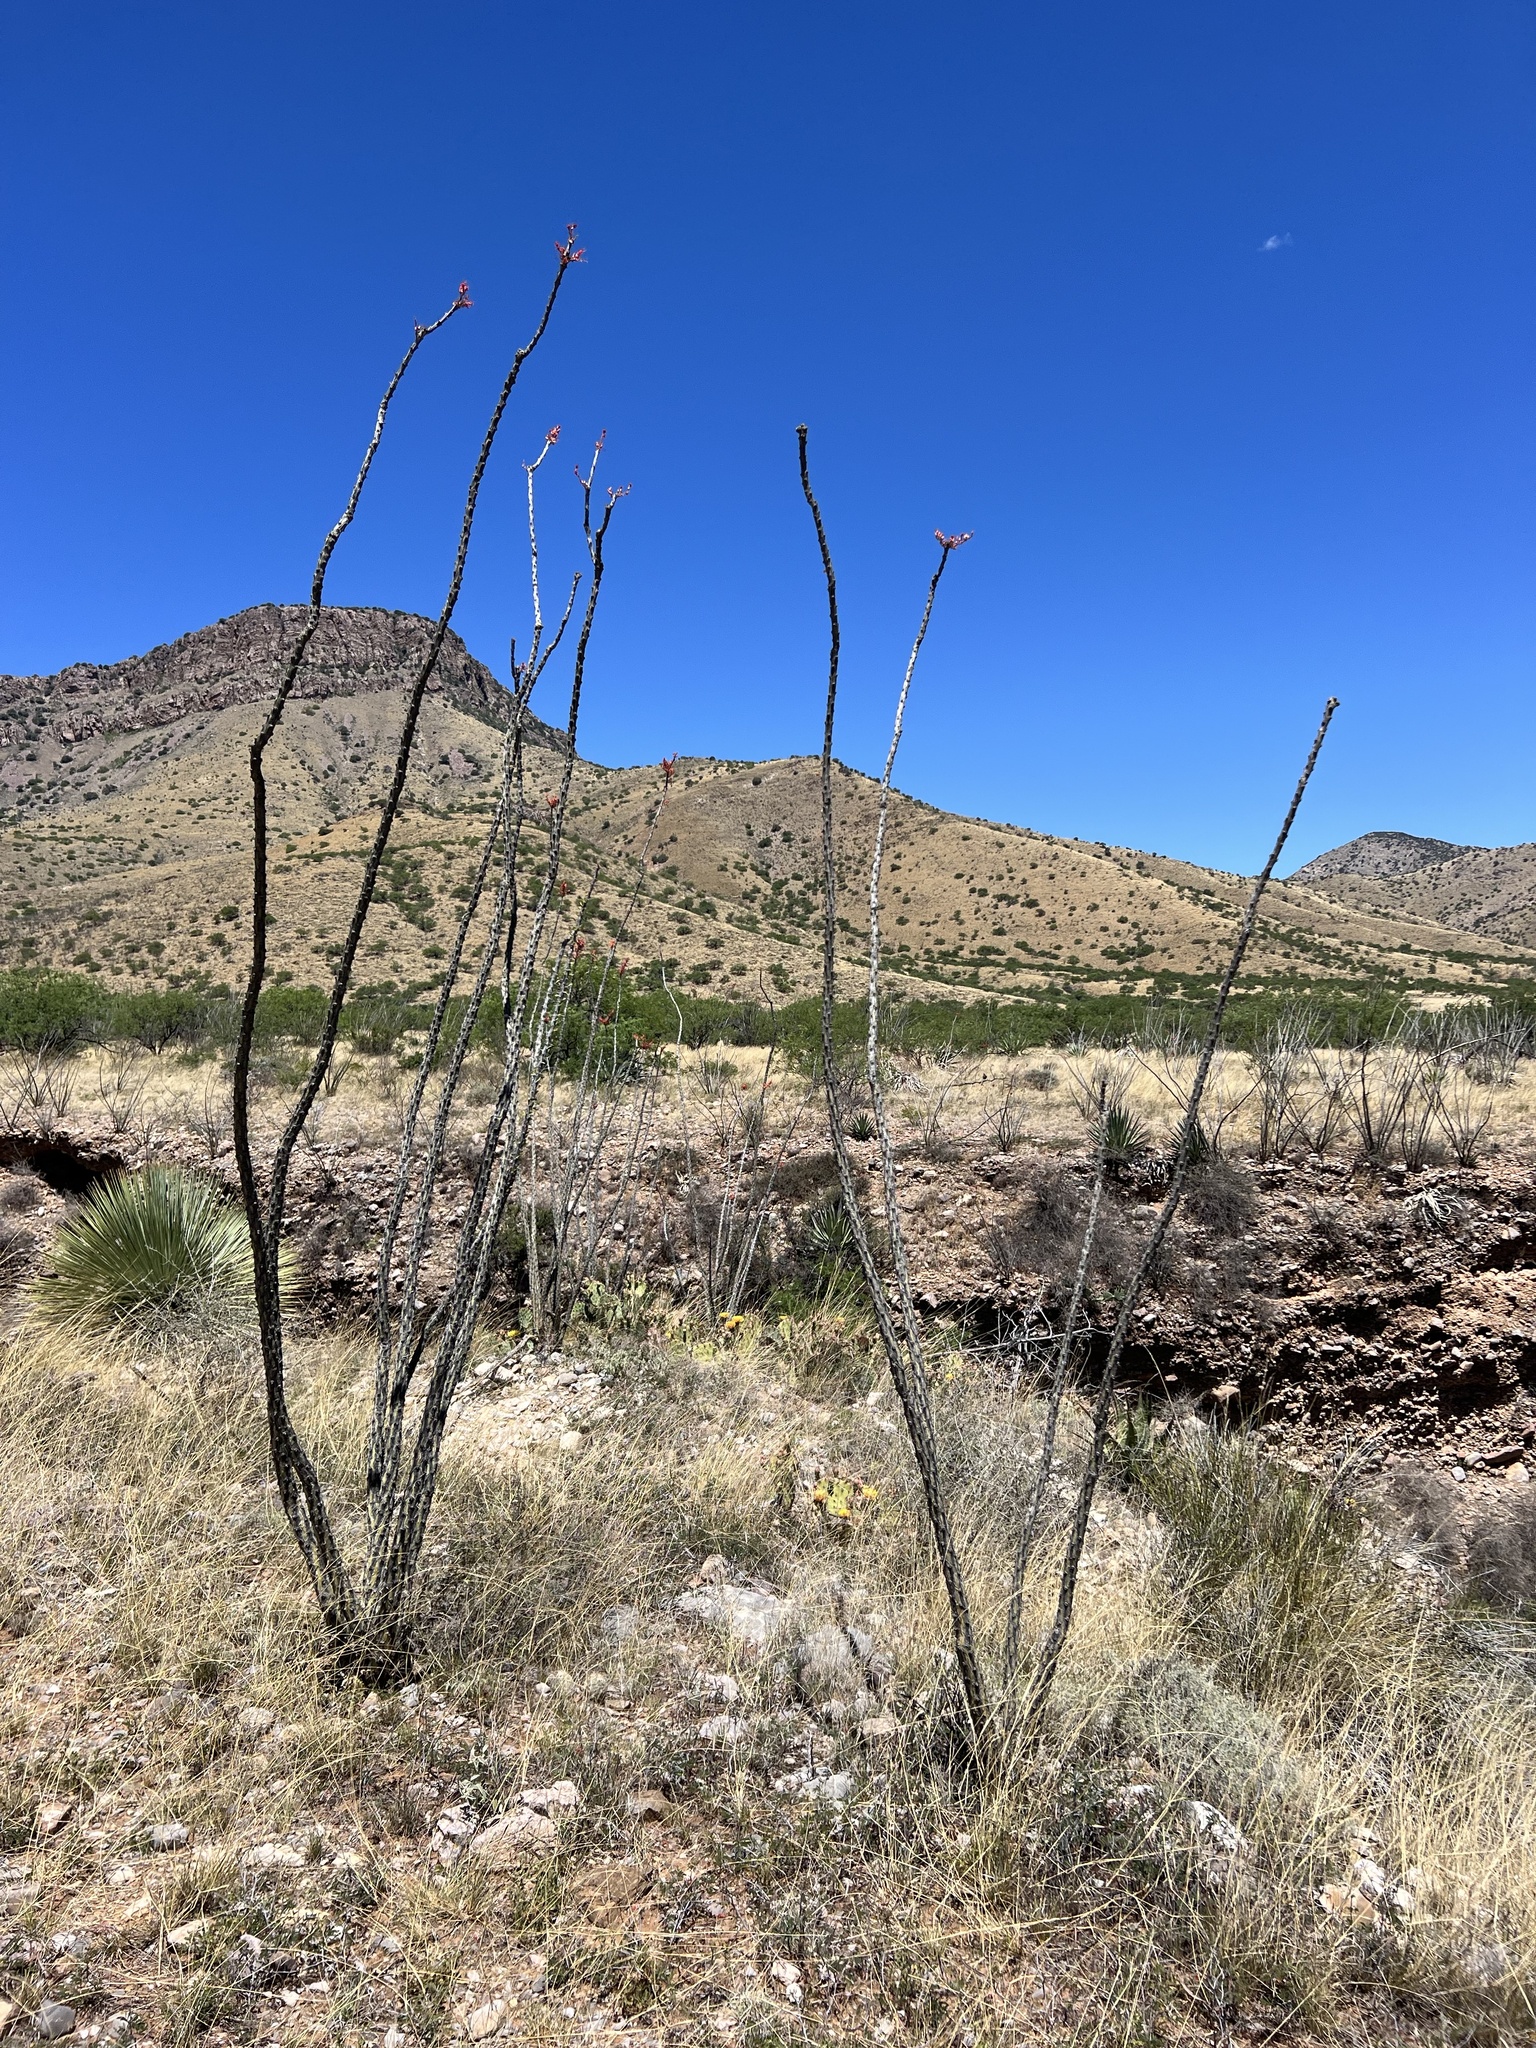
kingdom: Plantae
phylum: Tracheophyta
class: Magnoliopsida
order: Ericales
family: Fouquieriaceae
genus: Fouquieria
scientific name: Fouquieria splendens
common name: Vine-cactus
